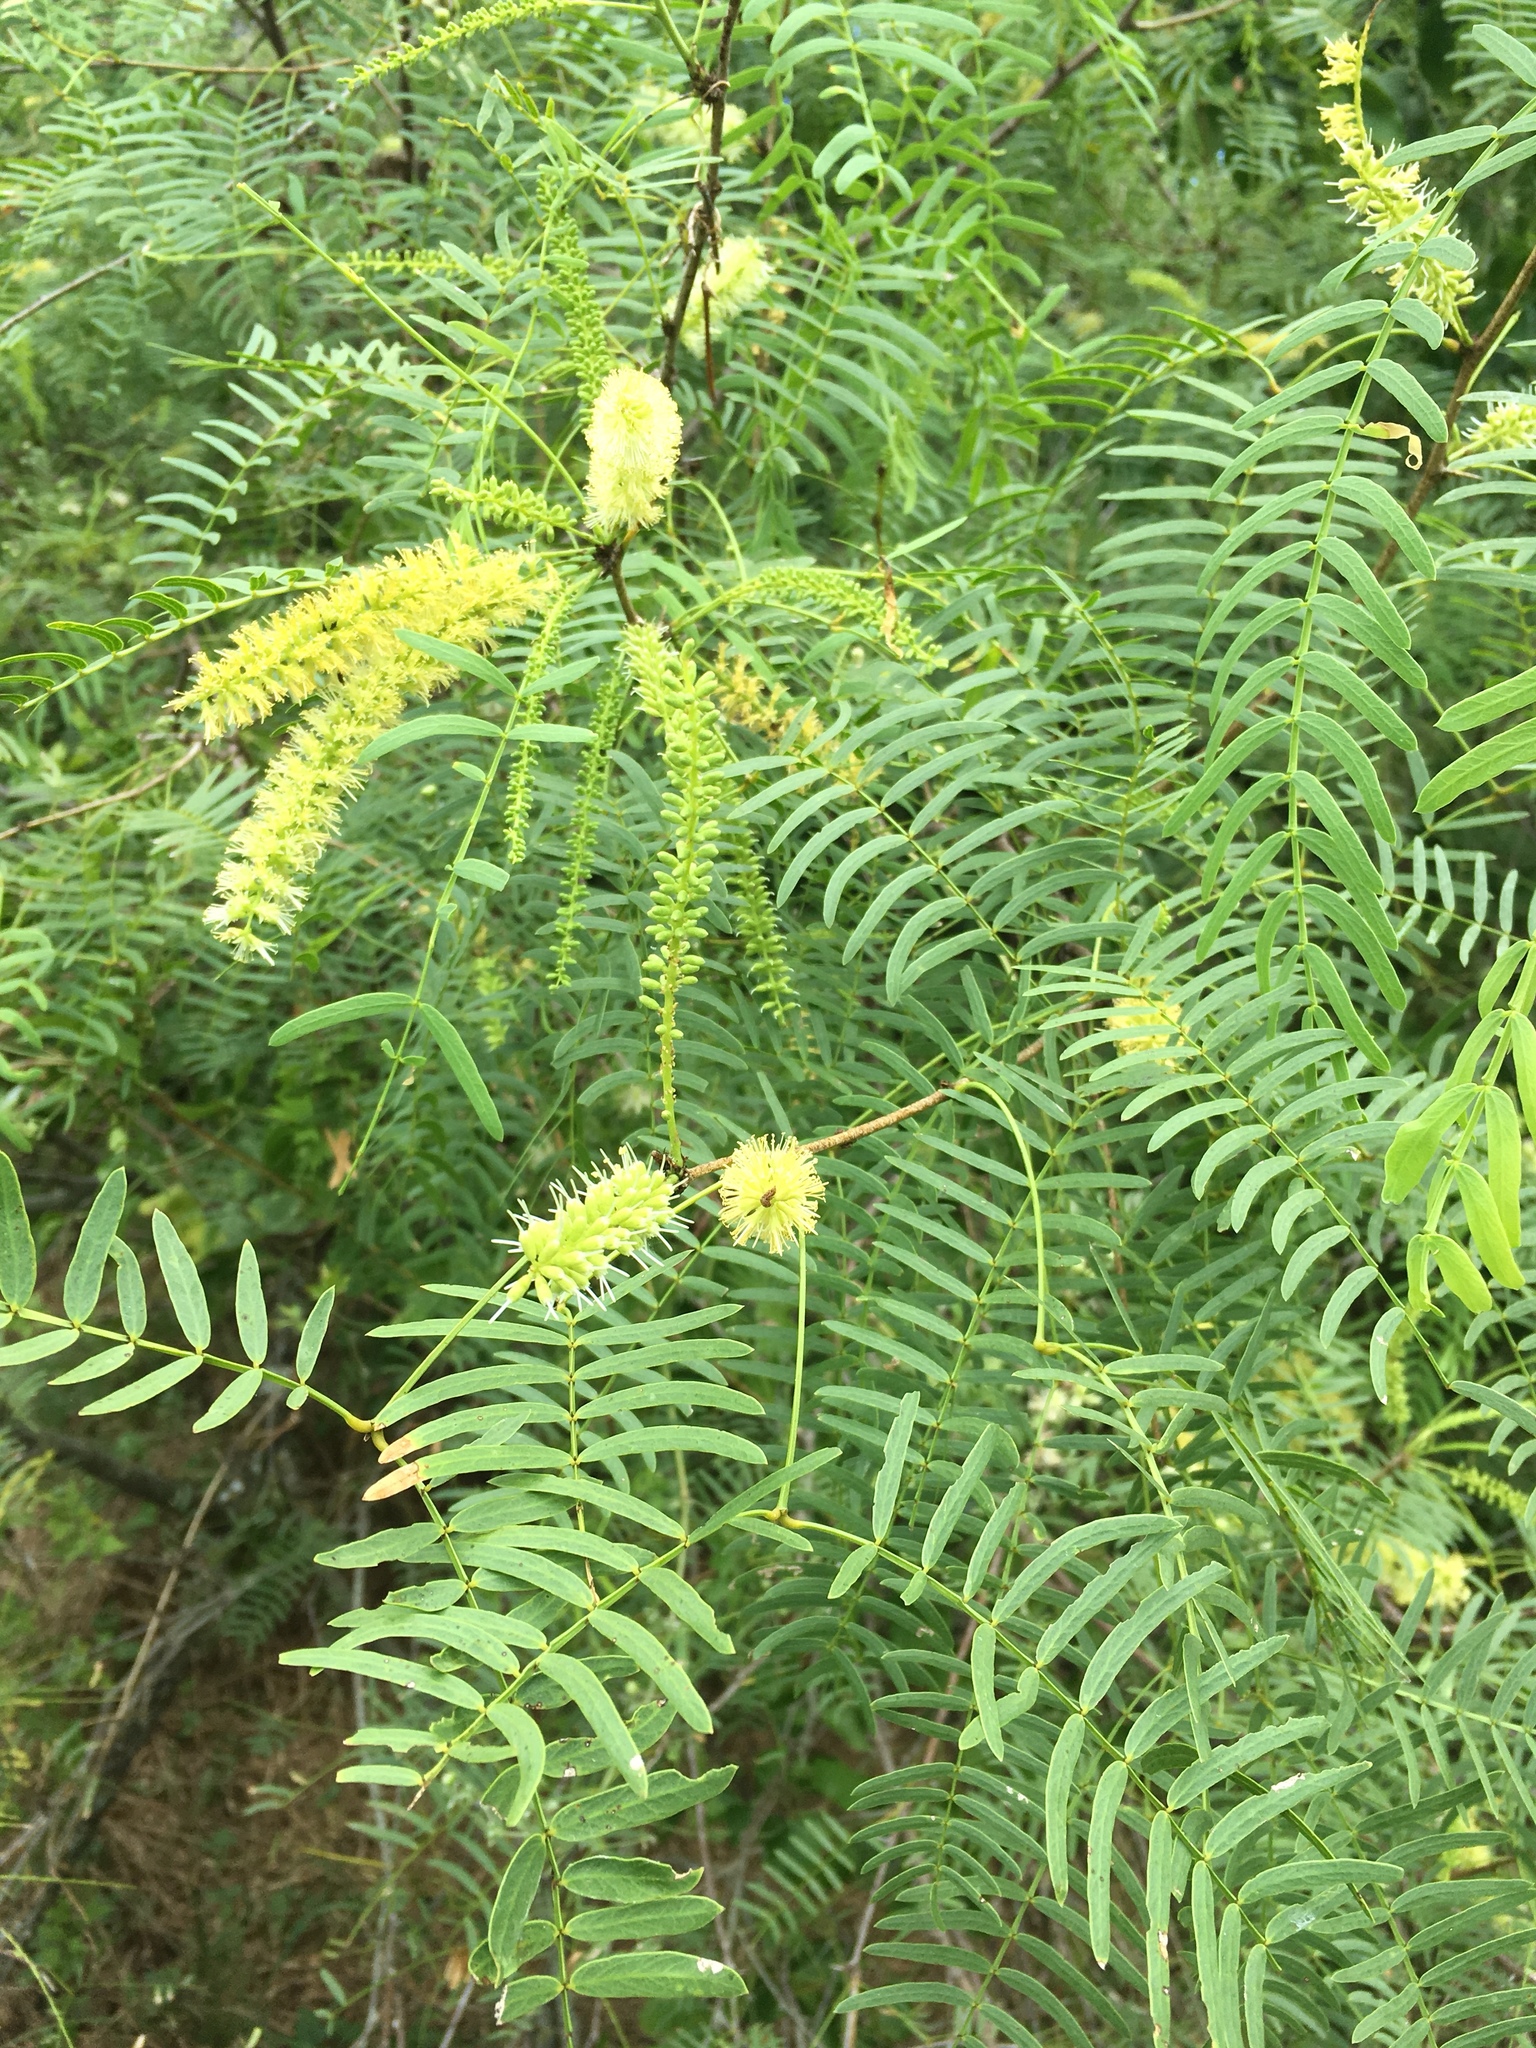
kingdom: Plantae
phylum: Tracheophyta
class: Magnoliopsida
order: Fabales
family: Fabaceae
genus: Prosopis
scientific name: Prosopis glandulosa
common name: Honey mesquite
